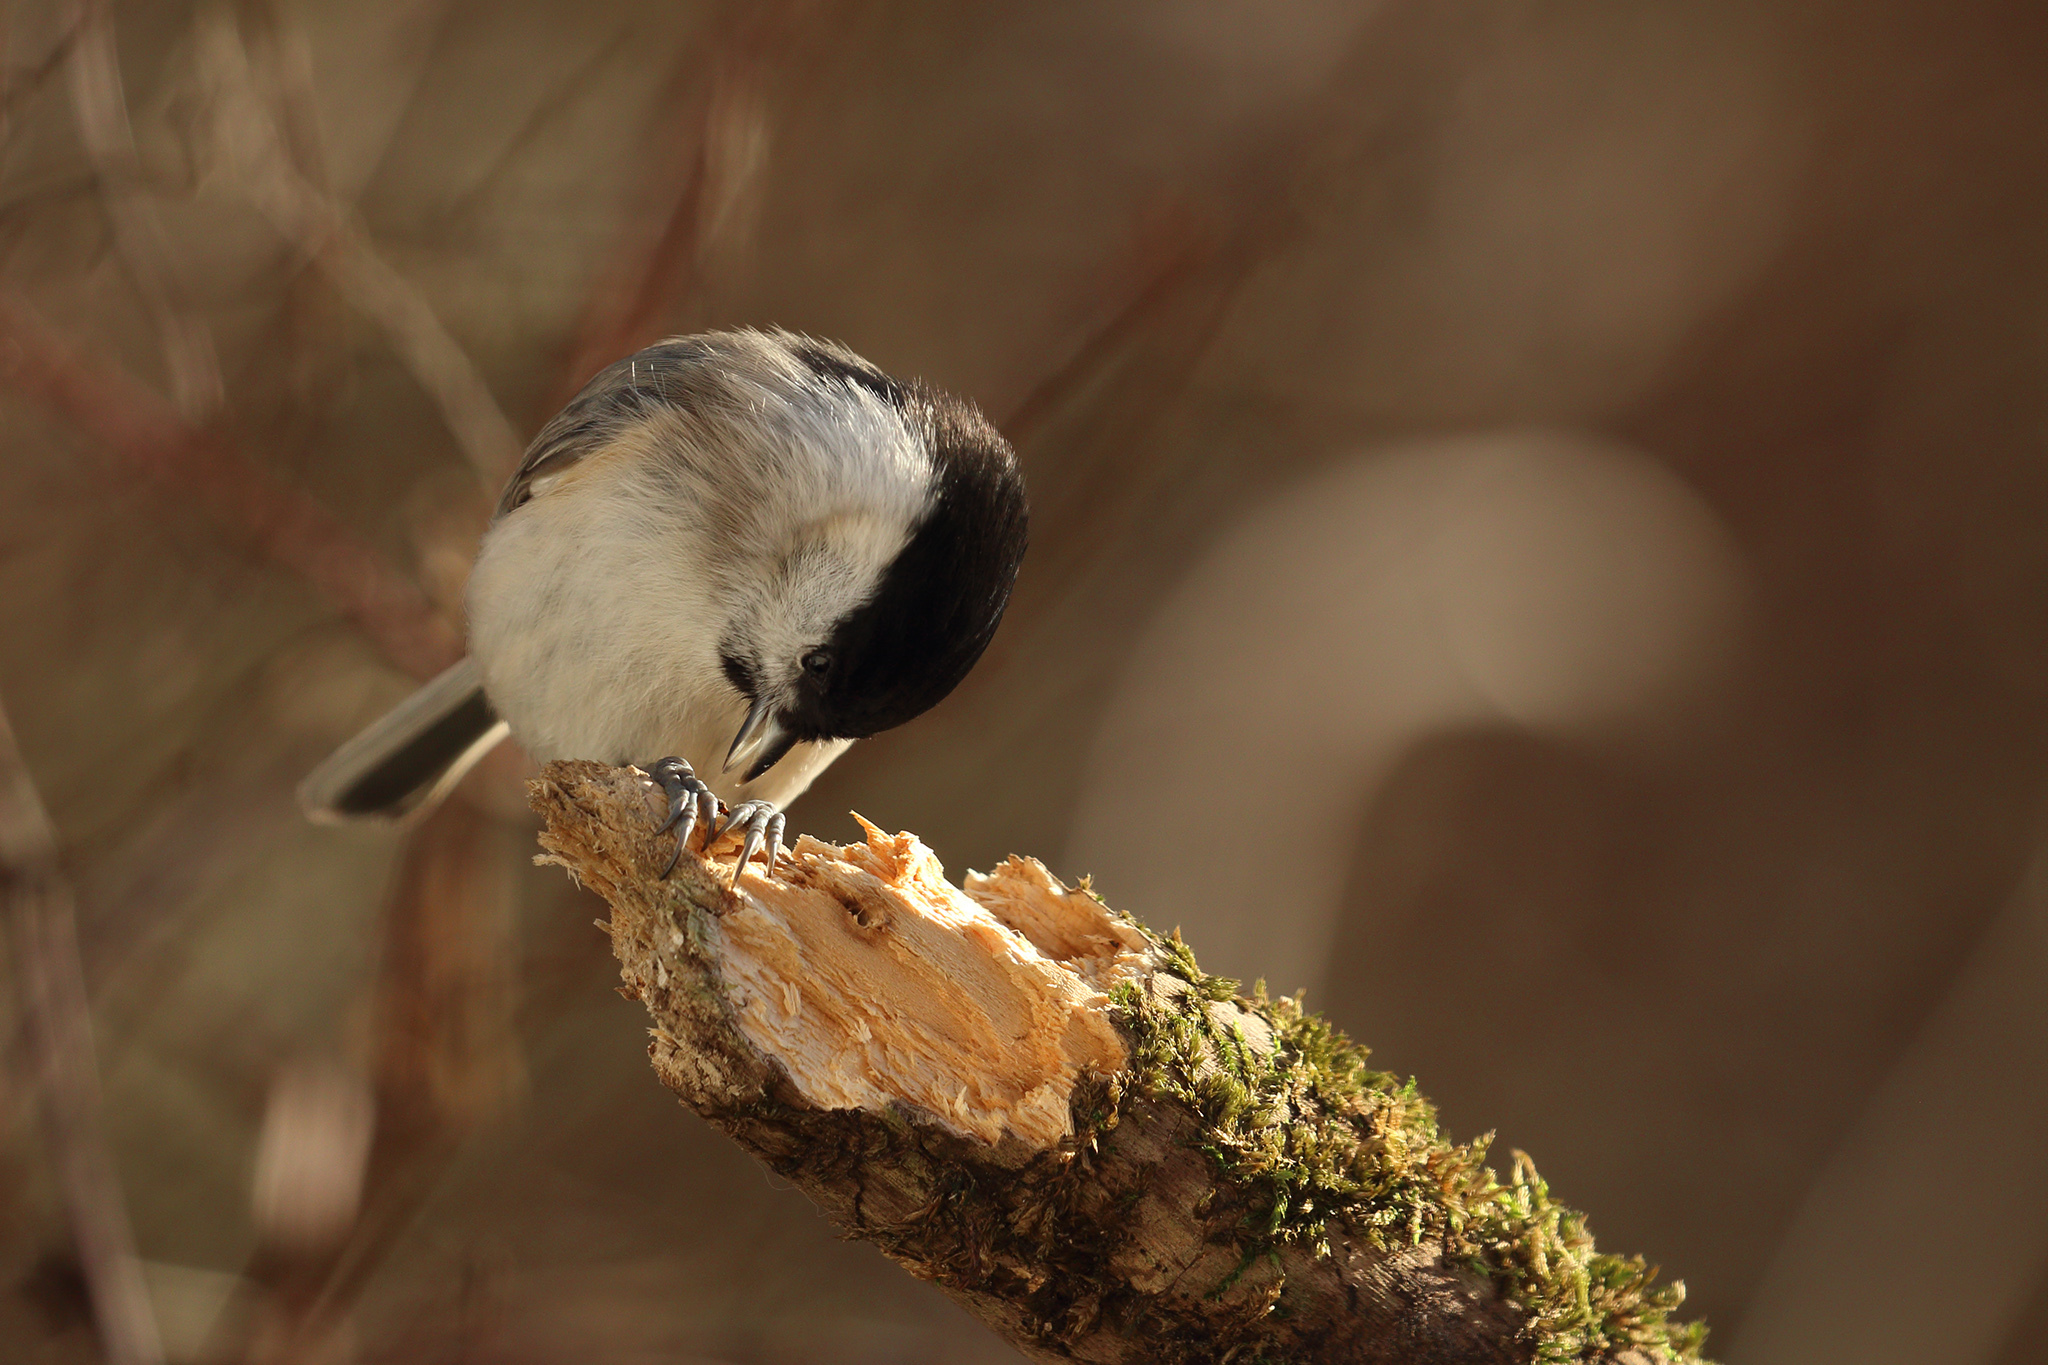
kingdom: Animalia
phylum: Chordata
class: Aves
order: Passeriformes
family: Paridae
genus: Poecile
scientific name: Poecile palustris
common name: Marsh tit
